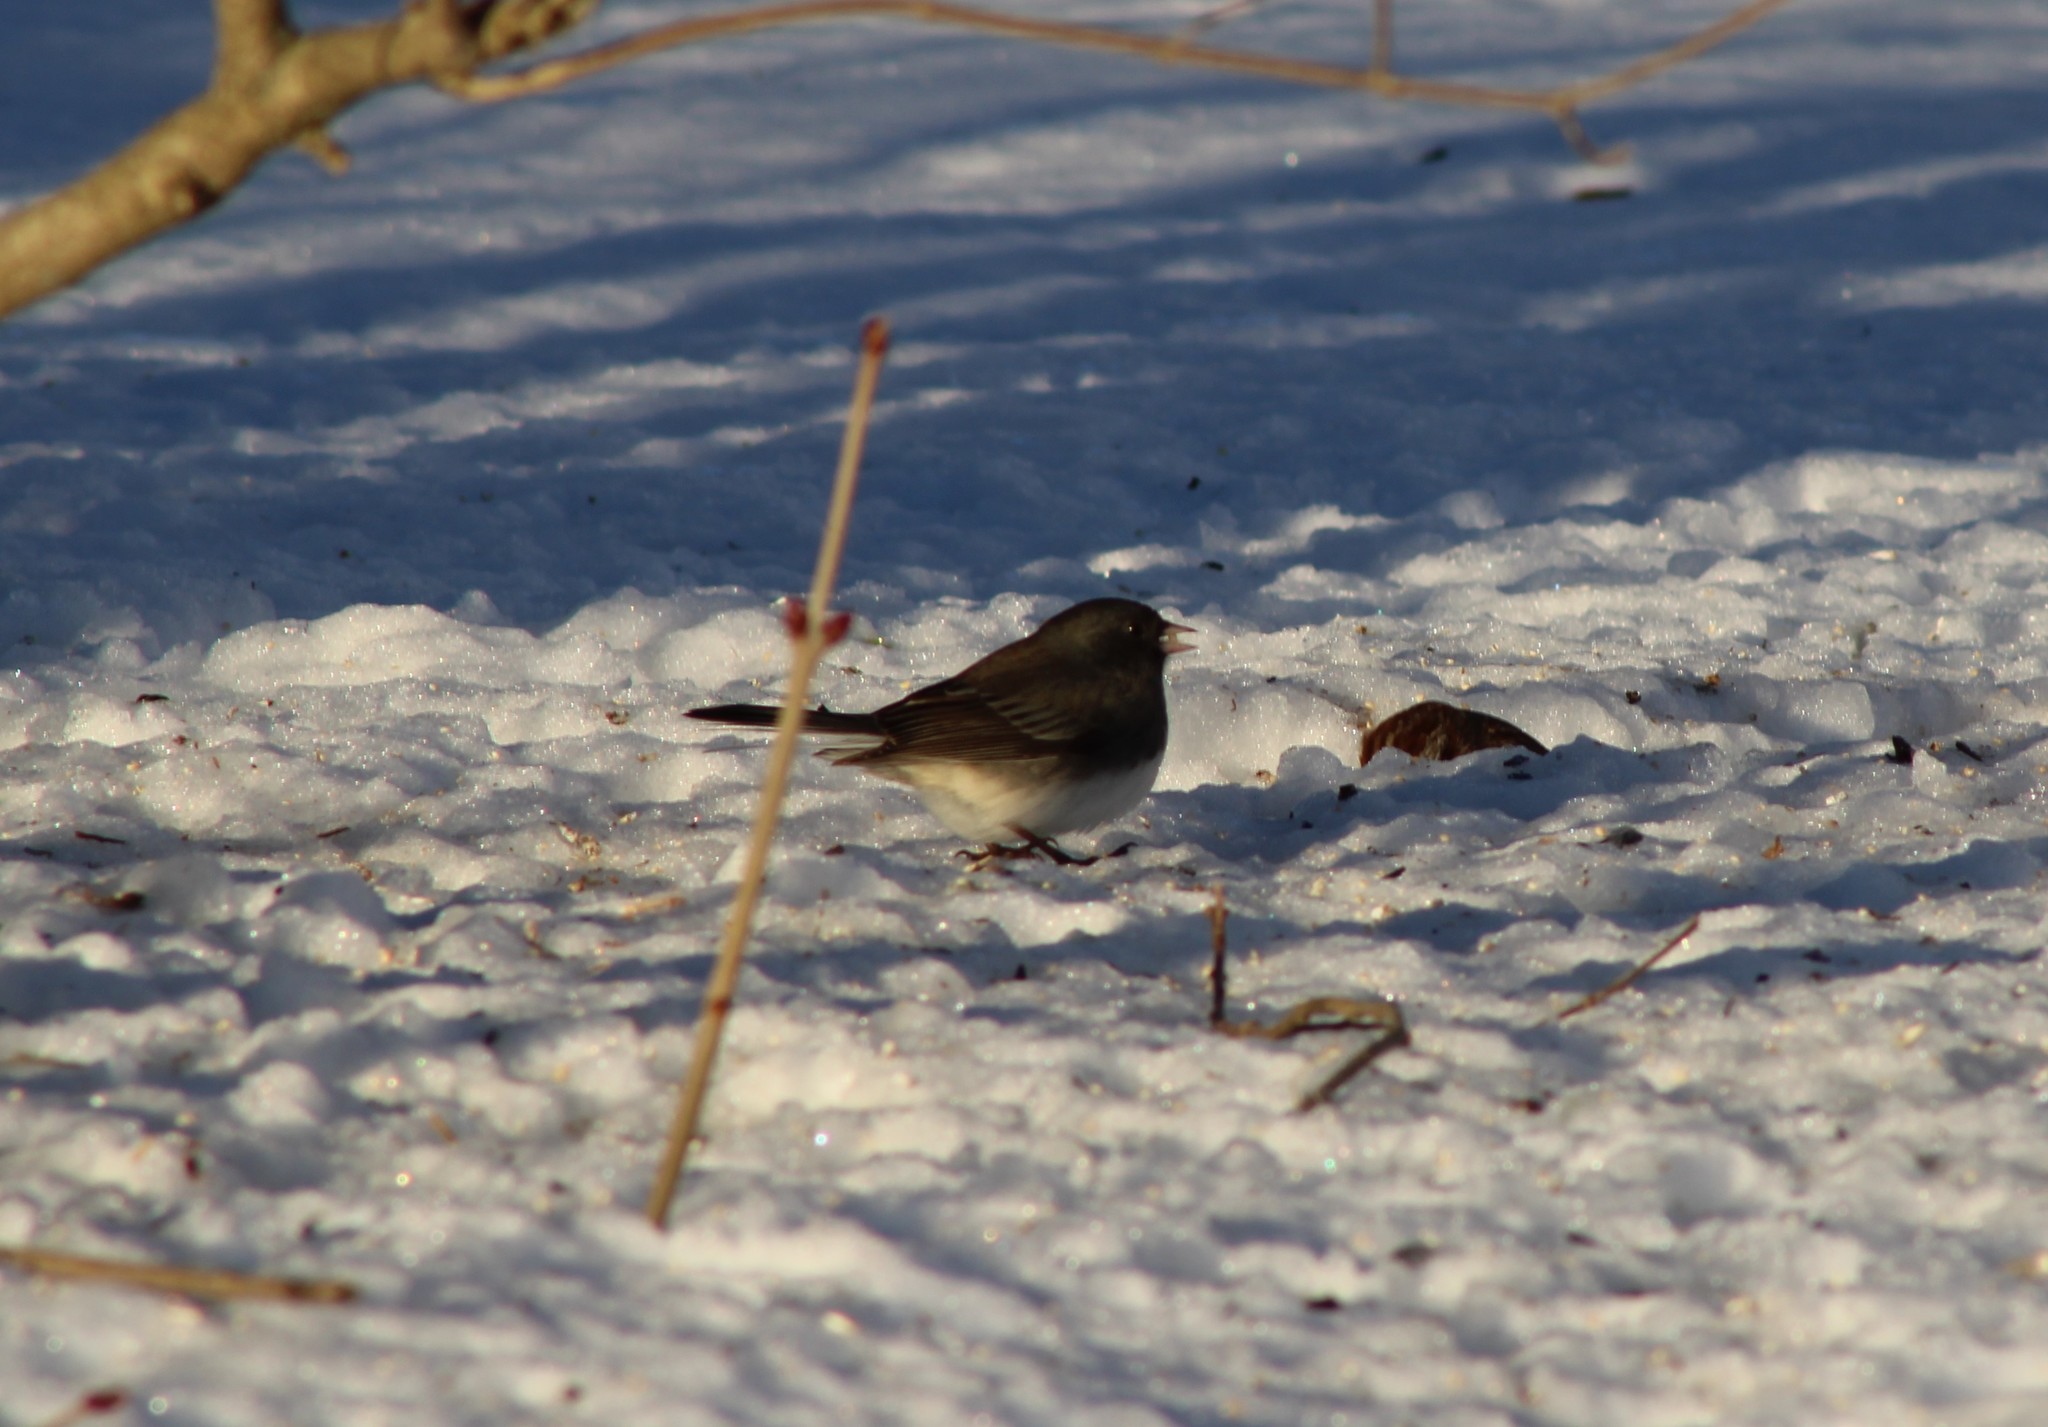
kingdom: Animalia
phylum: Chordata
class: Aves
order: Passeriformes
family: Passerellidae
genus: Junco
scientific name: Junco hyemalis
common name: Dark-eyed junco
